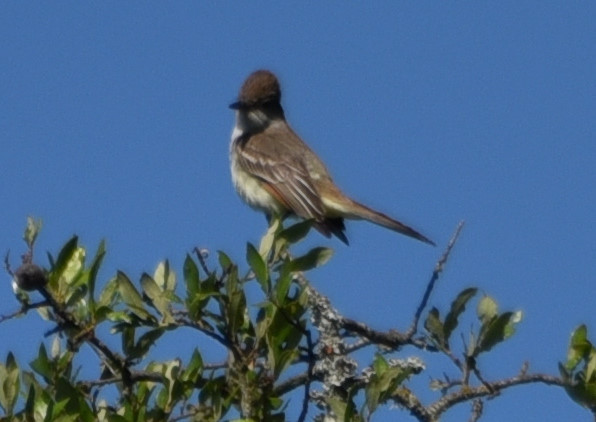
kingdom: Animalia
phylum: Chordata
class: Aves
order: Passeriformes
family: Tyrannidae
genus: Myiarchus
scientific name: Myiarchus cinerascens
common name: Ash-throated flycatcher
